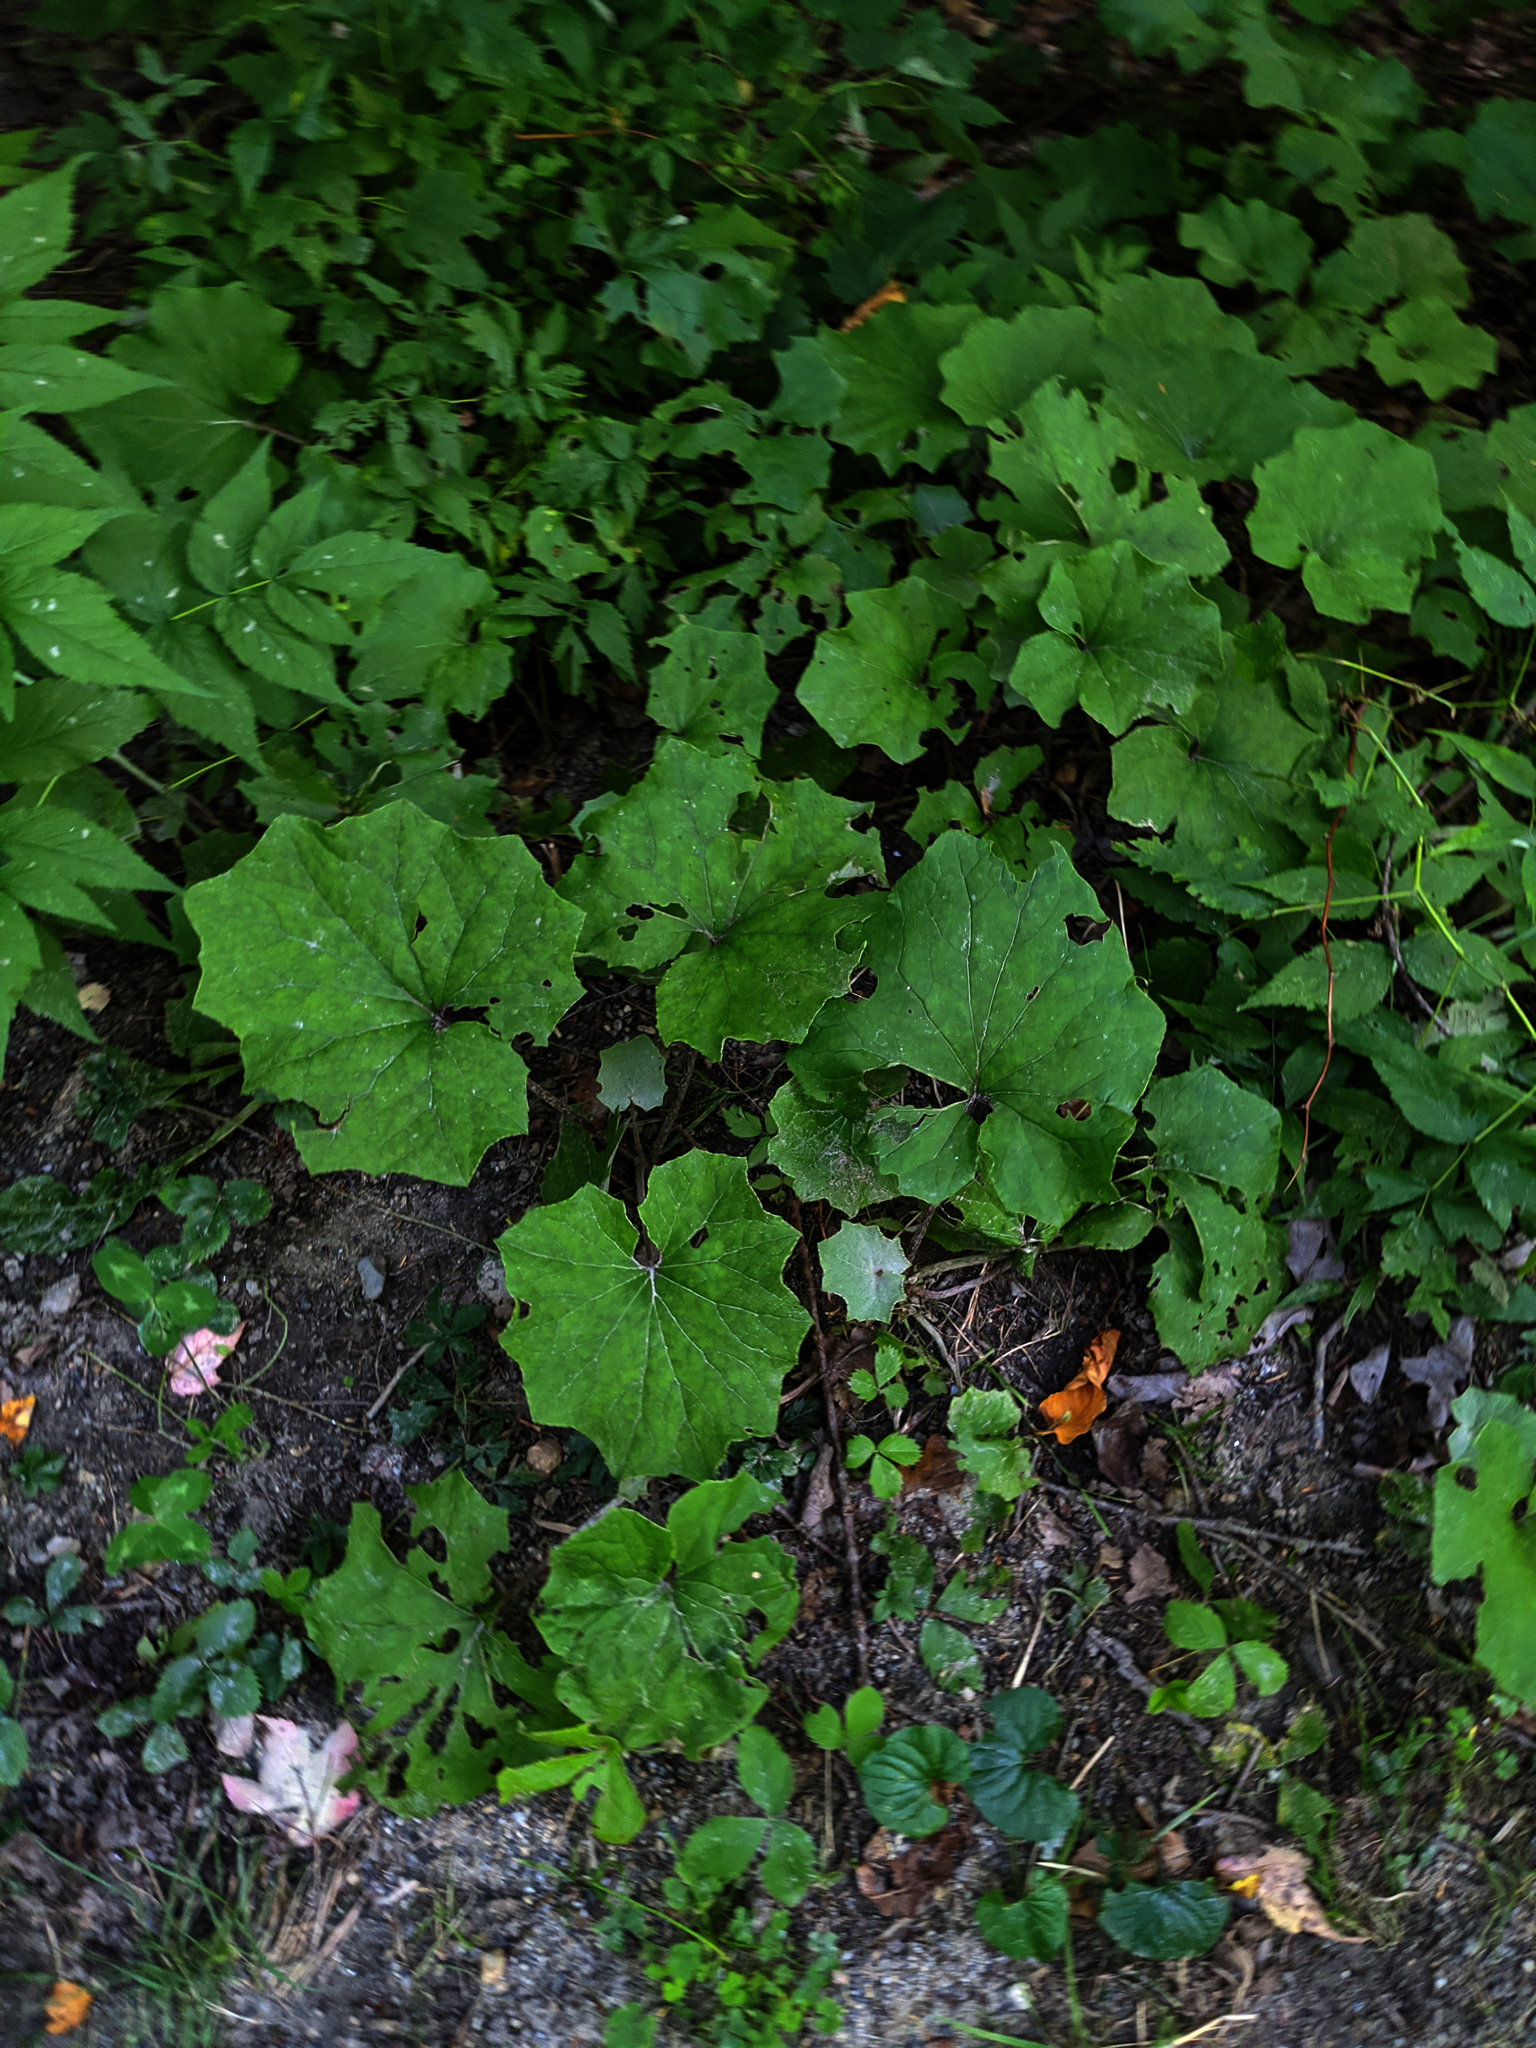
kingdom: Plantae
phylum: Tracheophyta
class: Magnoliopsida
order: Asterales
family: Asteraceae
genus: Tussilago
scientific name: Tussilago farfara
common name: Coltsfoot
